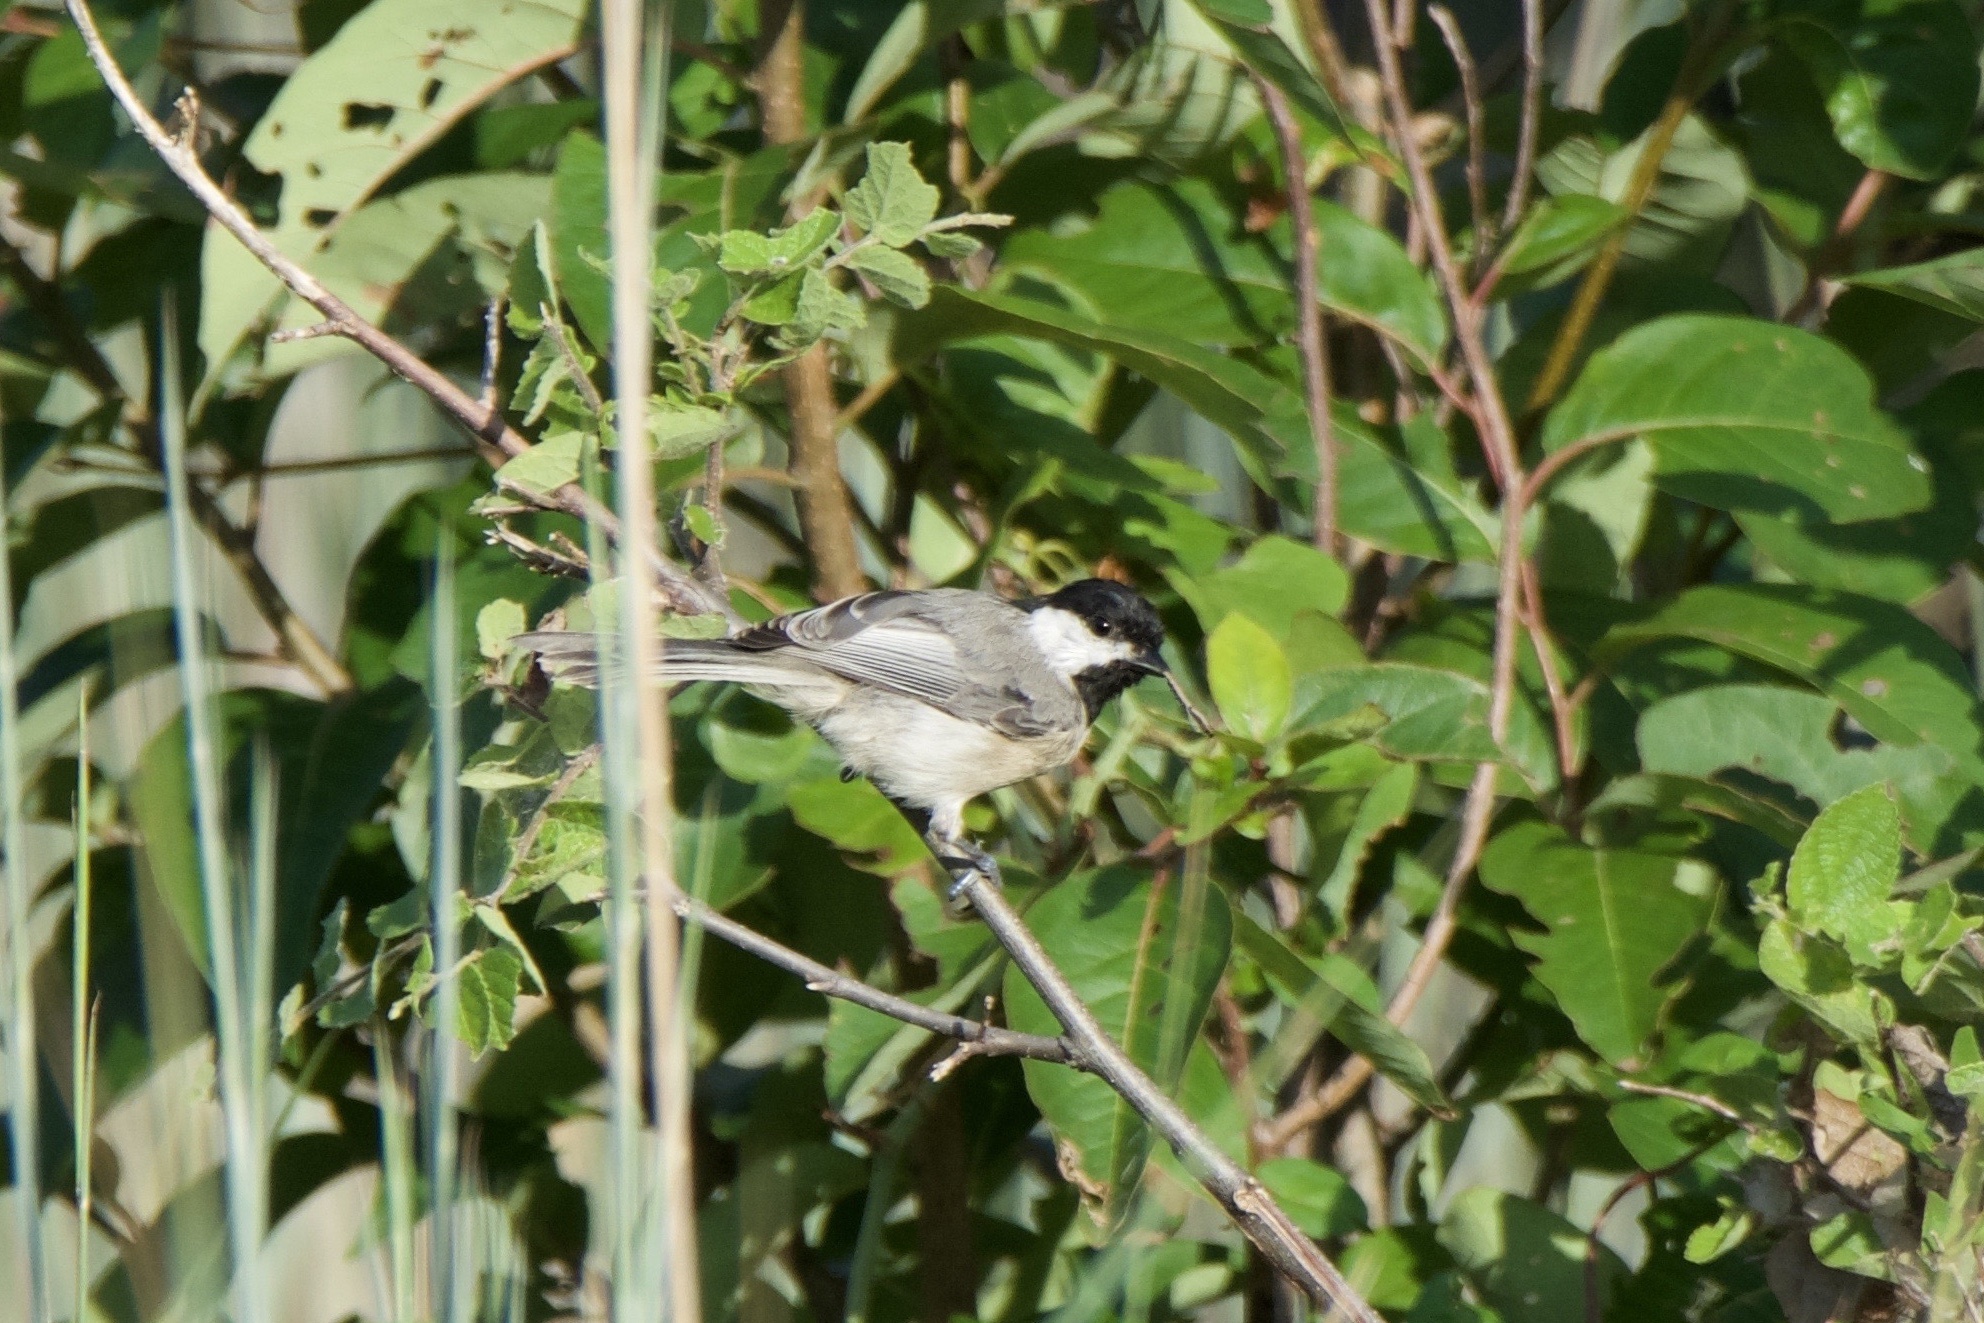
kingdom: Animalia
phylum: Chordata
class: Aves
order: Passeriformes
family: Paridae
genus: Poecile
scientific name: Poecile carolinensis
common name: Carolina chickadee
